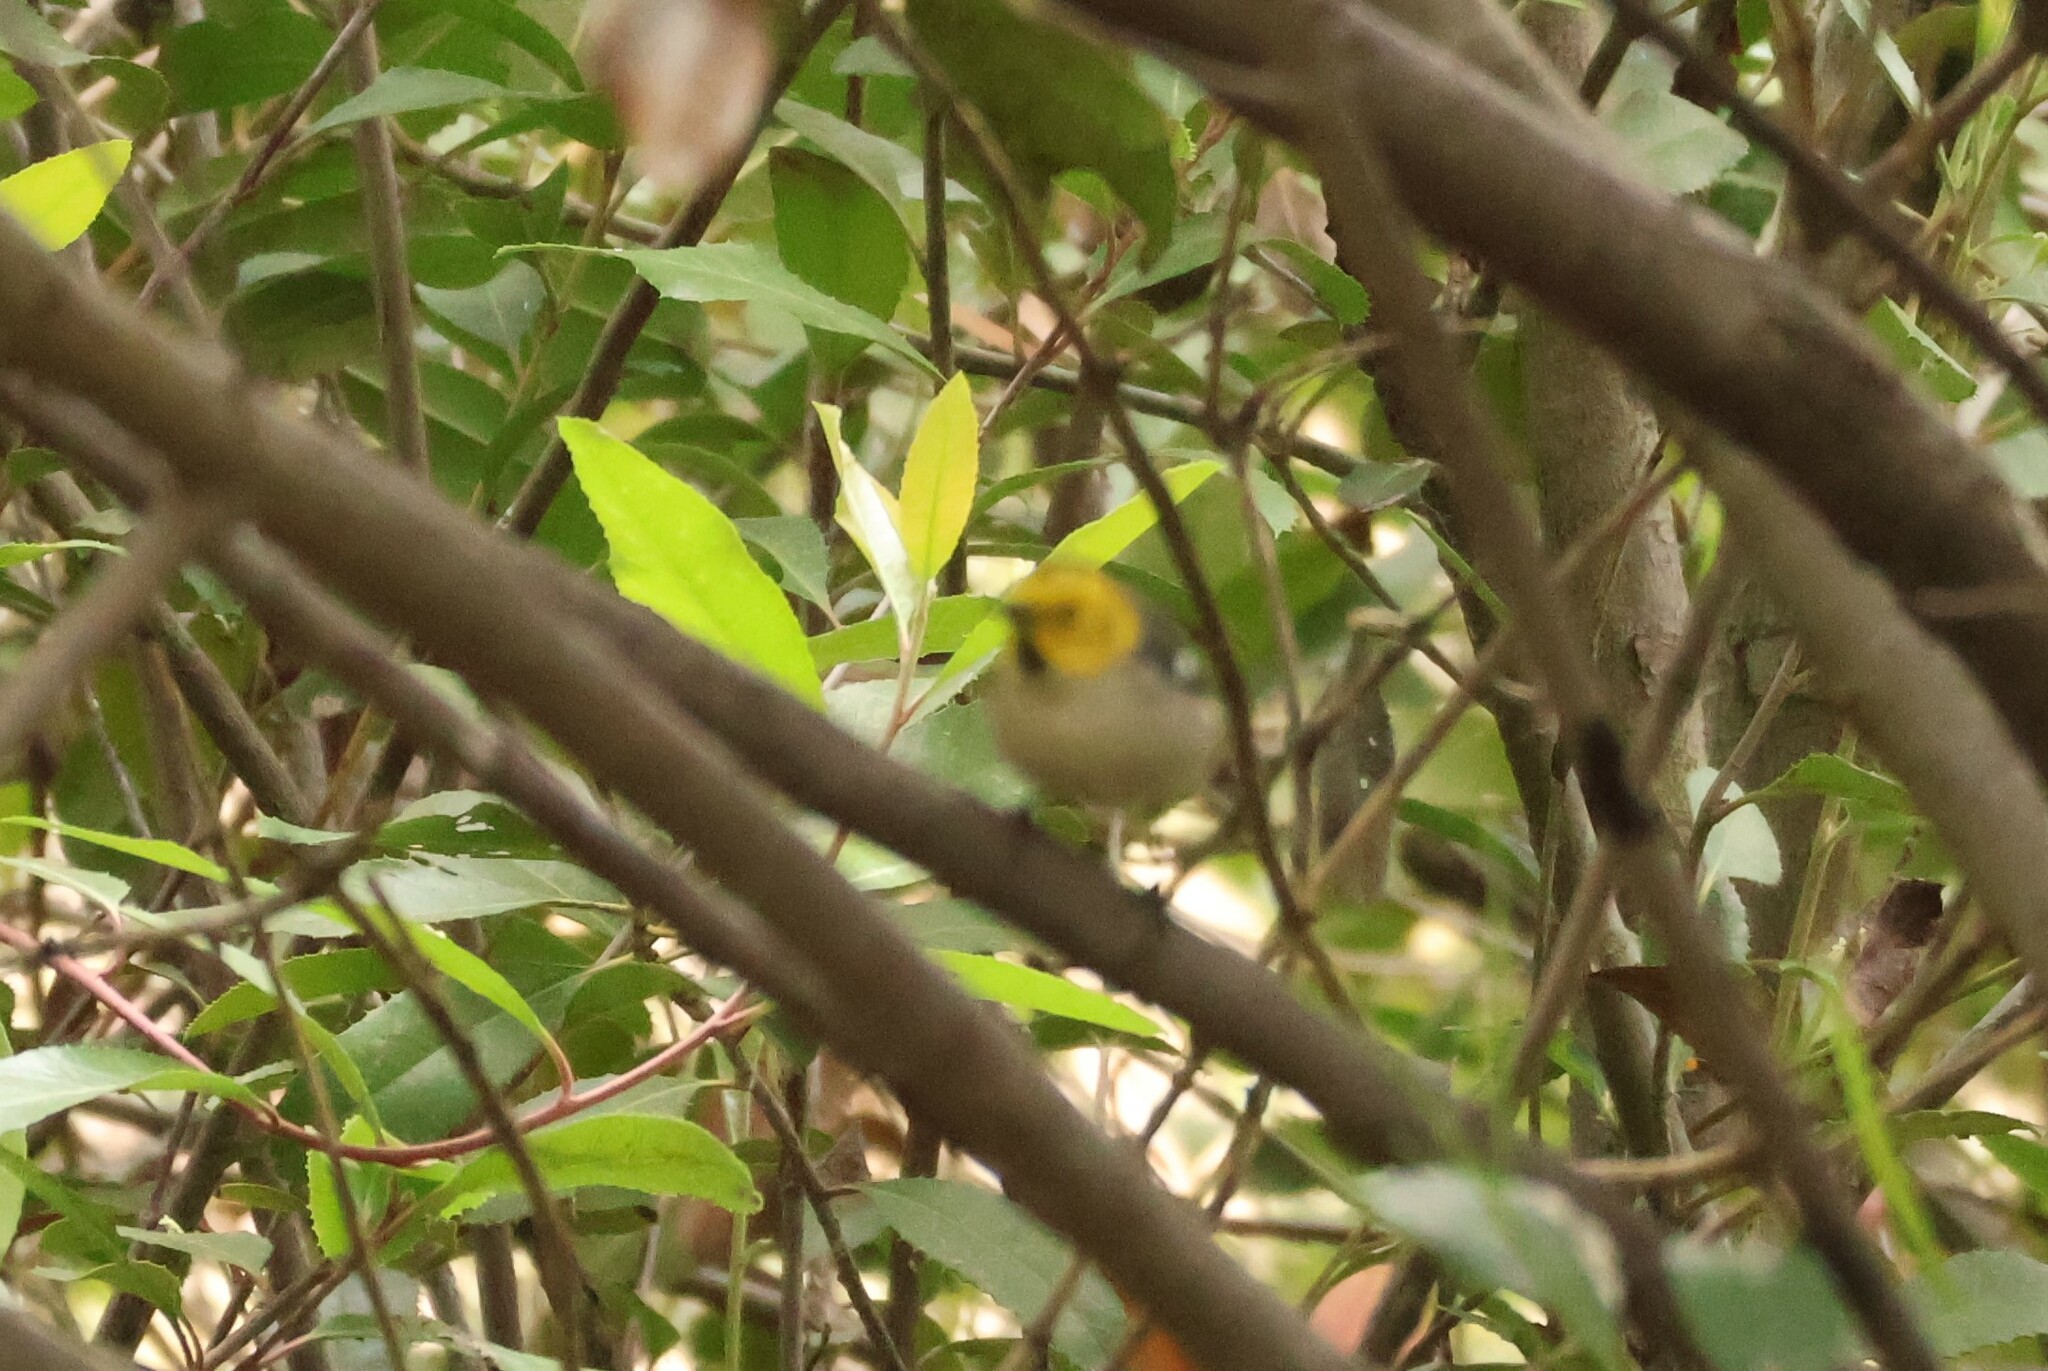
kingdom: Animalia
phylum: Chordata
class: Aves
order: Passeriformes
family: Parulidae
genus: Setophaga
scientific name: Setophaga occidentalis
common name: Hermit warbler
